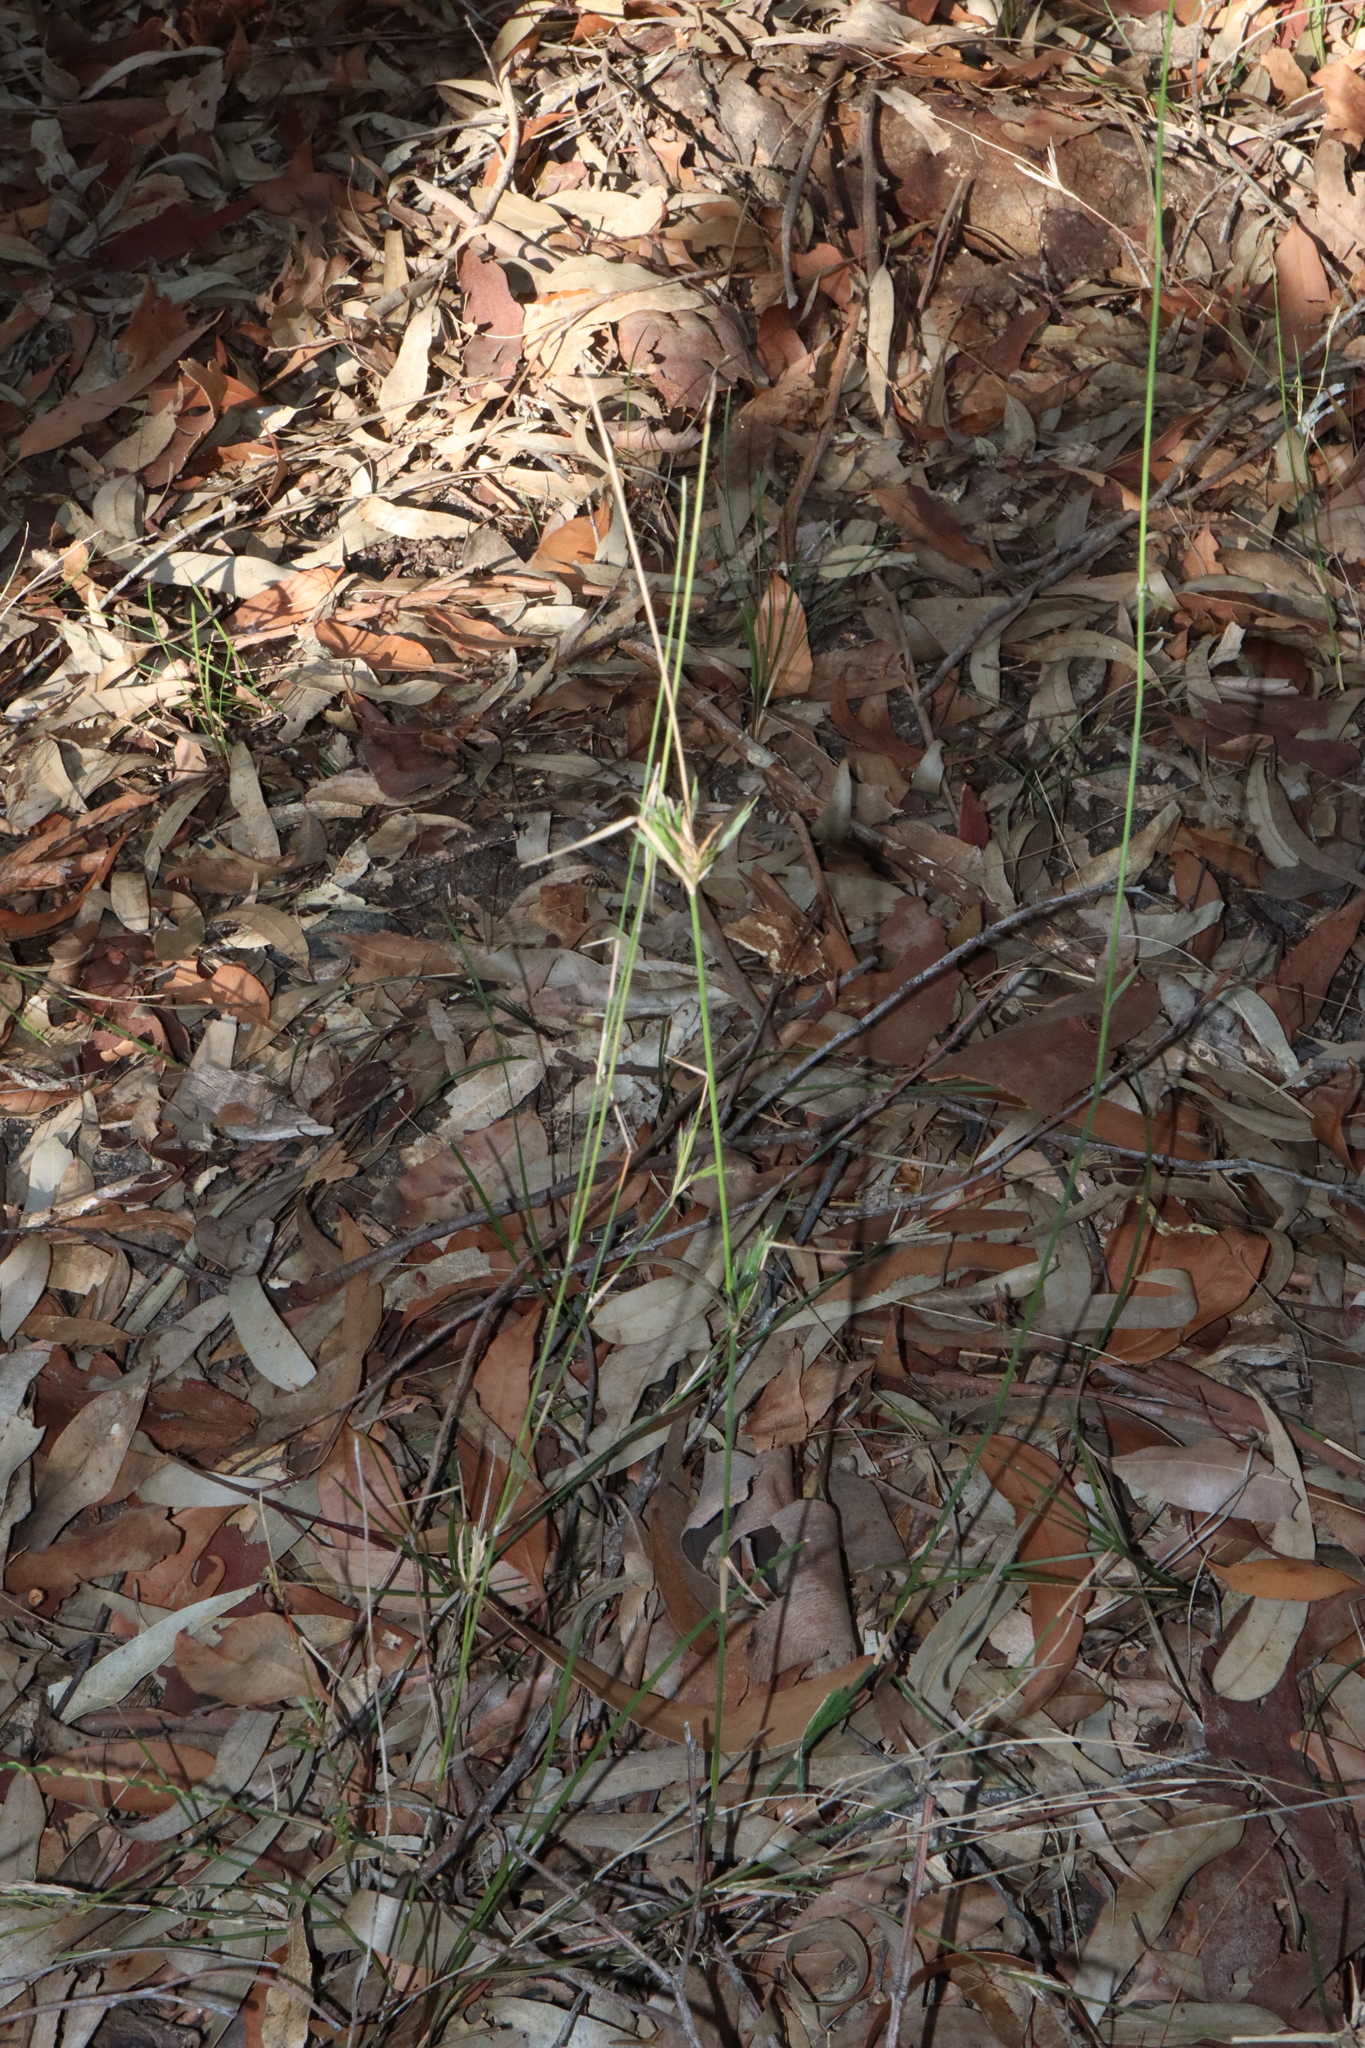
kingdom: Plantae
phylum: Tracheophyta
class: Liliopsida
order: Poales
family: Poaceae
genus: Entolasia
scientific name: Entolasia stricta
